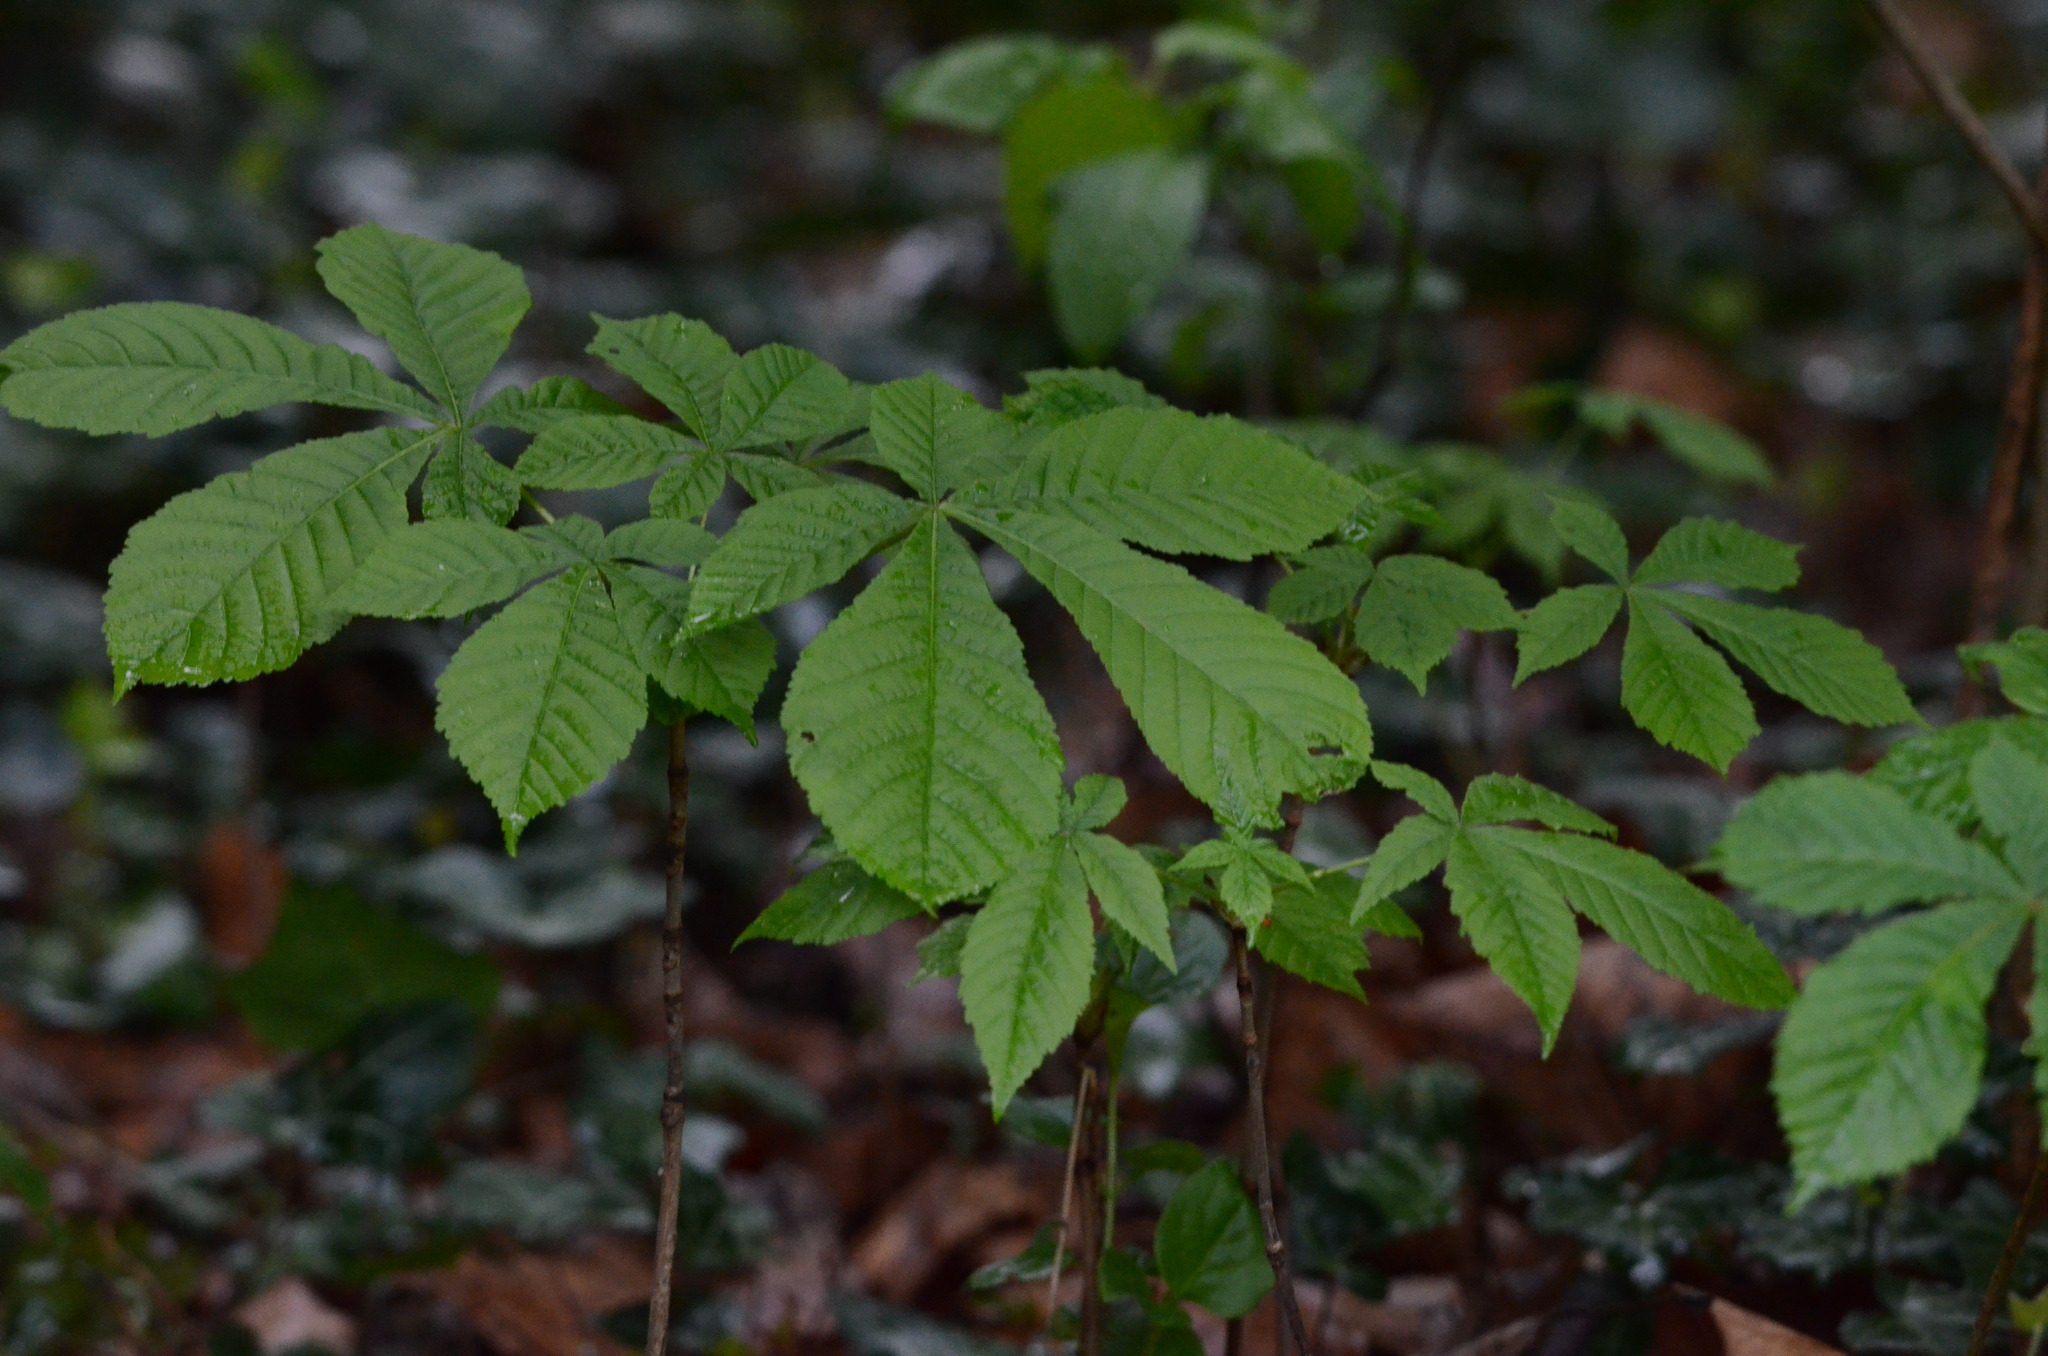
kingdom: Plantae
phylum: Tracheophyta
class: Magnoliopsida
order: Sapindales
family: Sapindaceae
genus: Aesculus
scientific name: Aesculus hippocastanum
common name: Horse-chestnut
